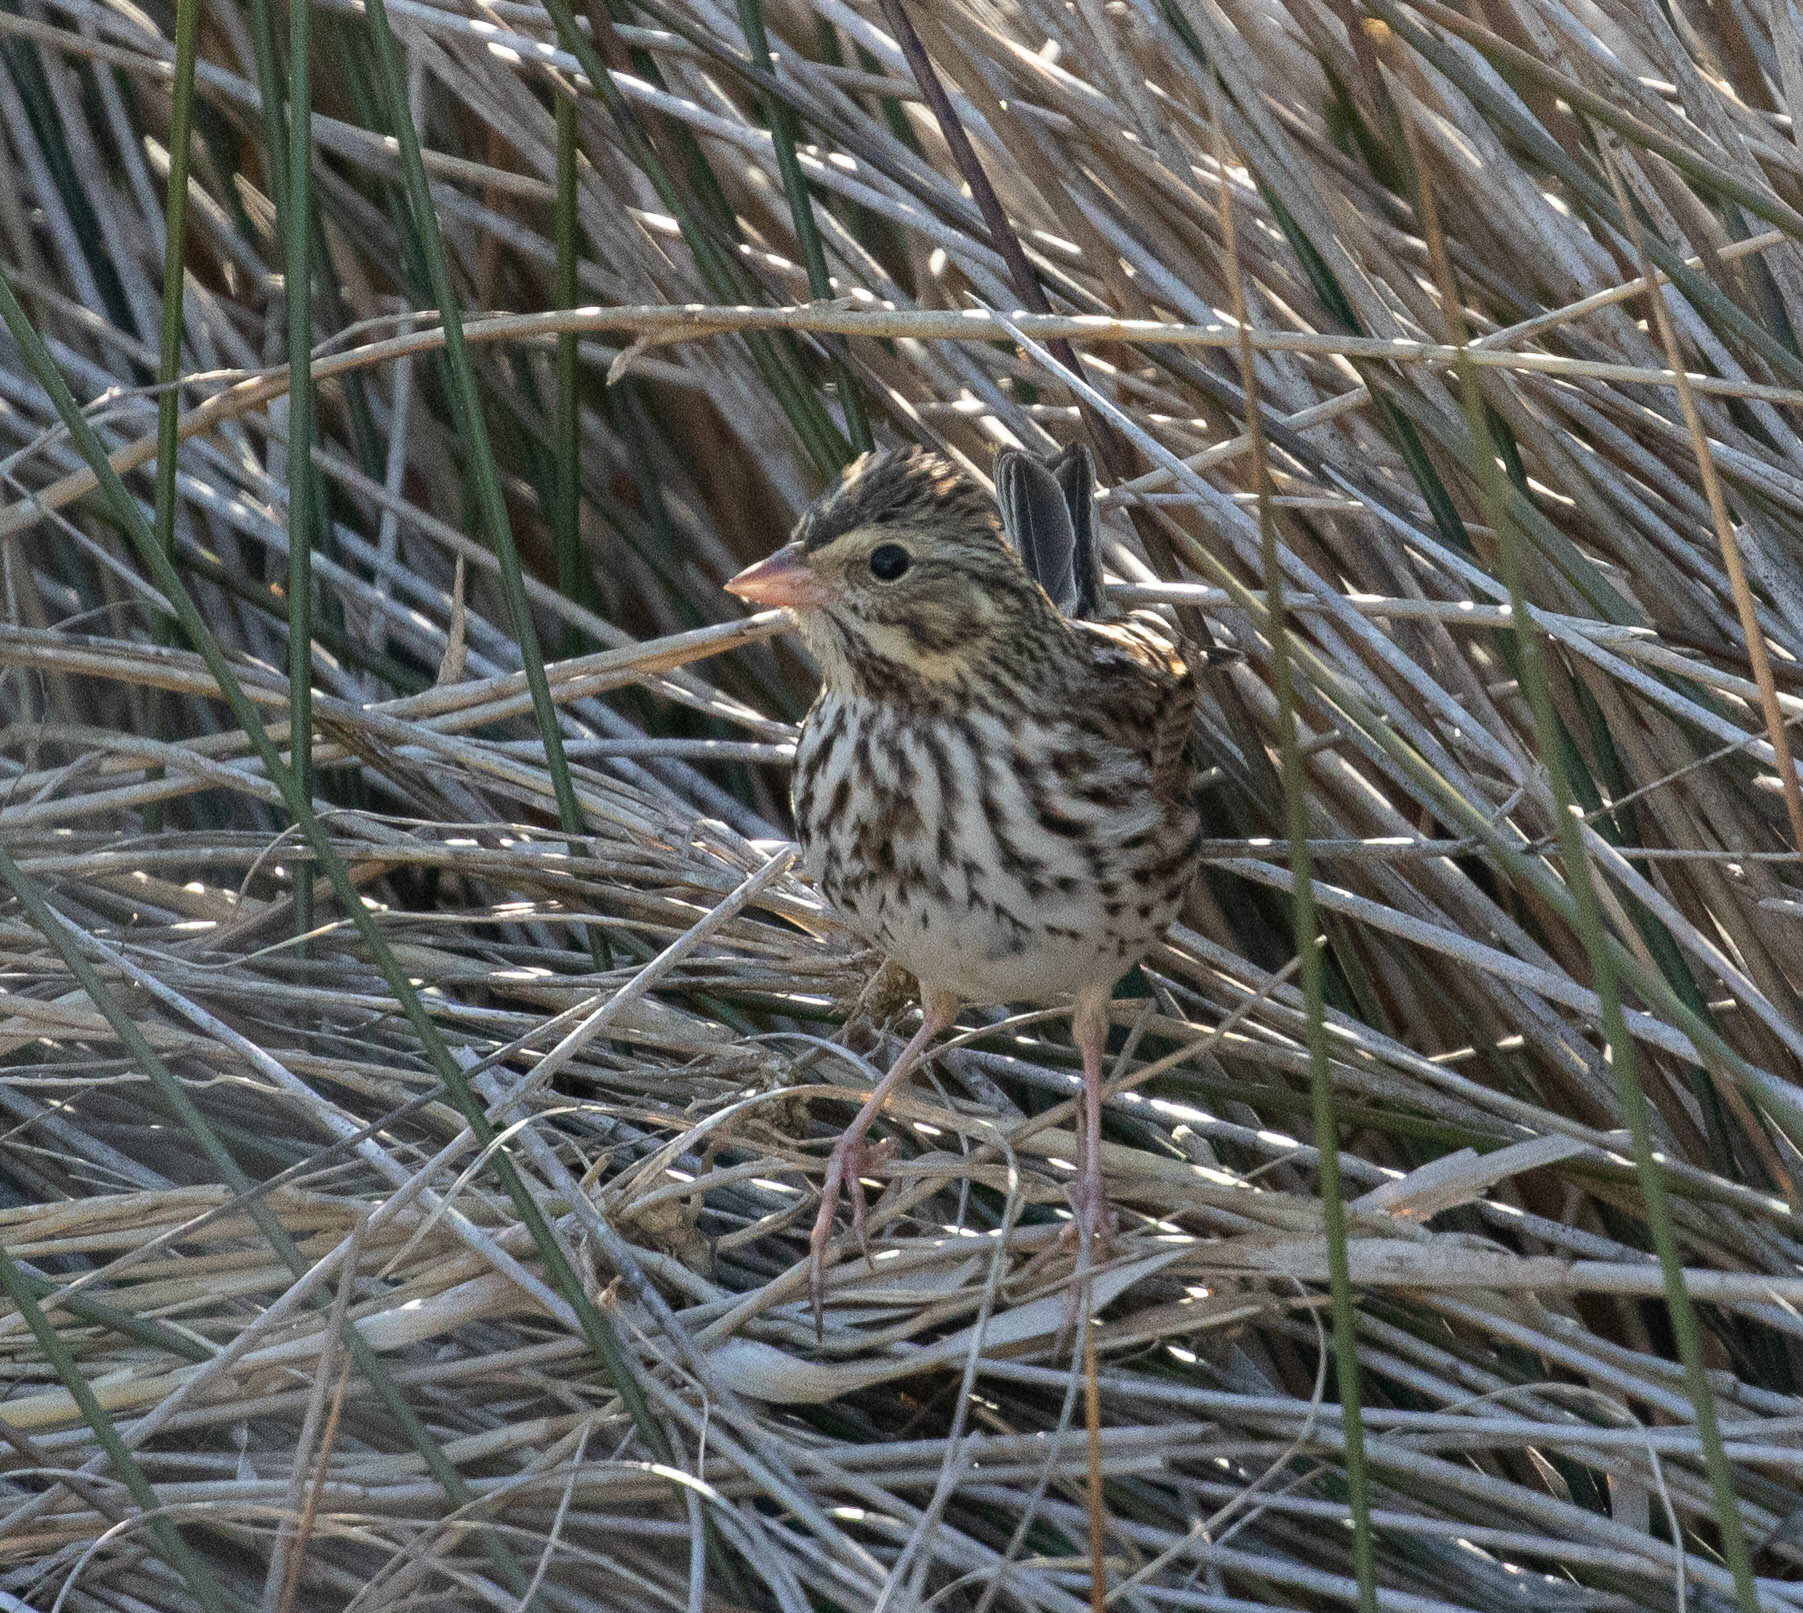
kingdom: Animalia
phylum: Chordata
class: Aves
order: Passeriformes
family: Passerellidae
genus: Passerculus
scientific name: Passerculus sandwichensis
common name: Savannah sparrow
